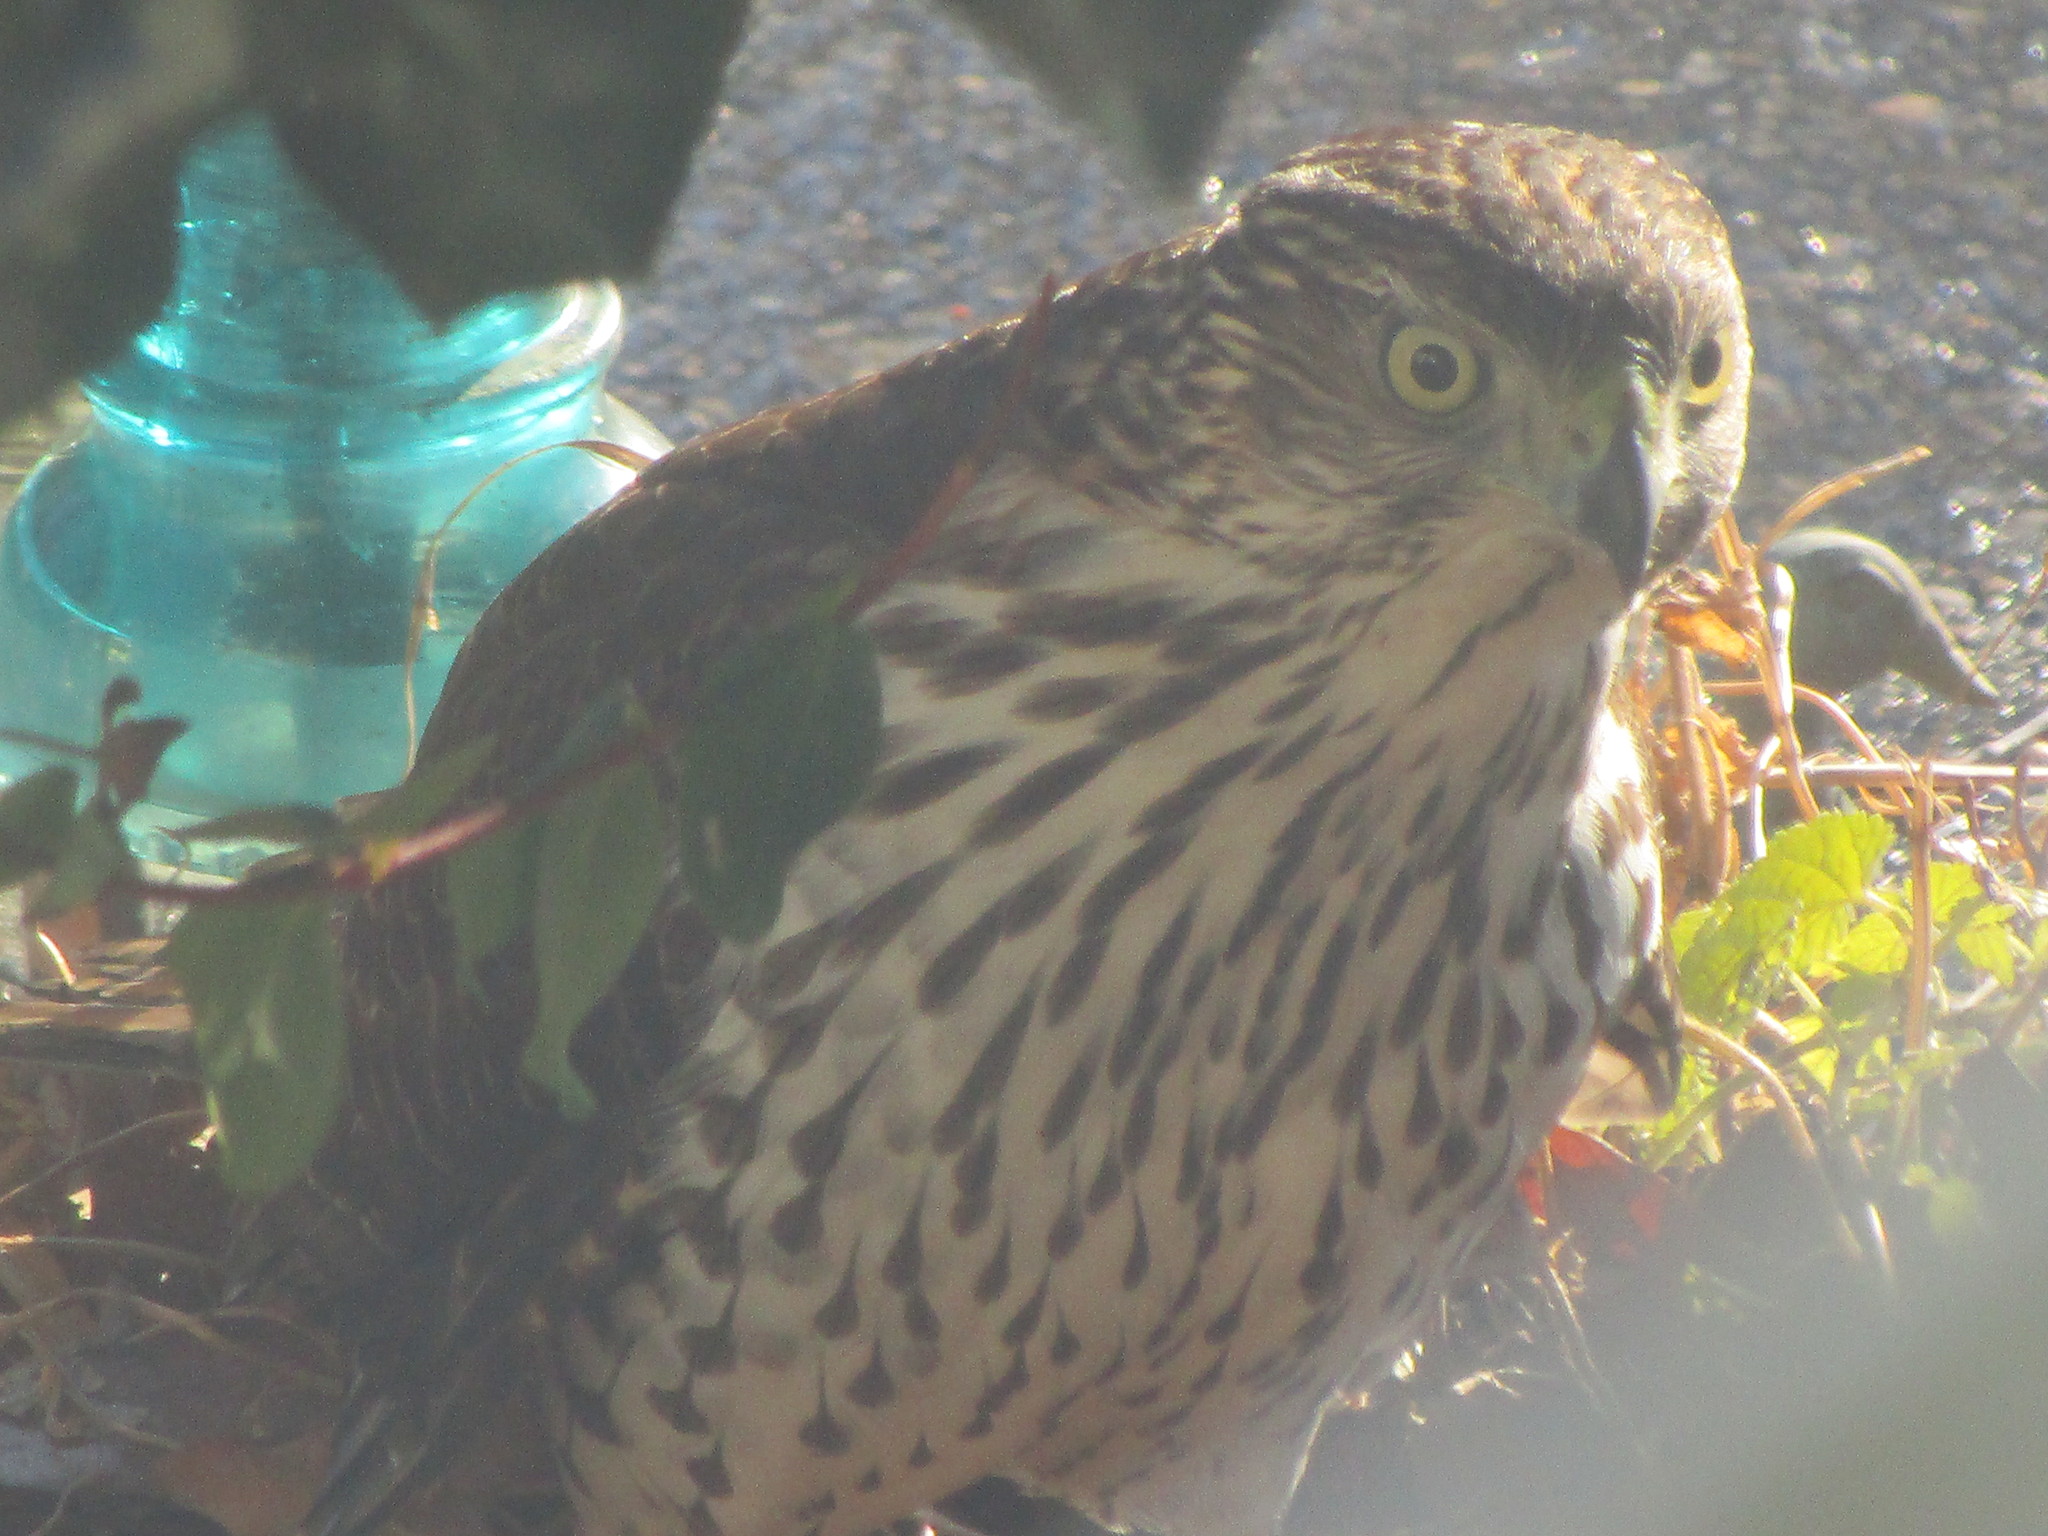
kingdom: Animalia
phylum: Chordata
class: Aves
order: Accipitriformes
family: Accipitridae
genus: Accipiter
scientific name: Accipiter cooperii
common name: Cooper's hawk
